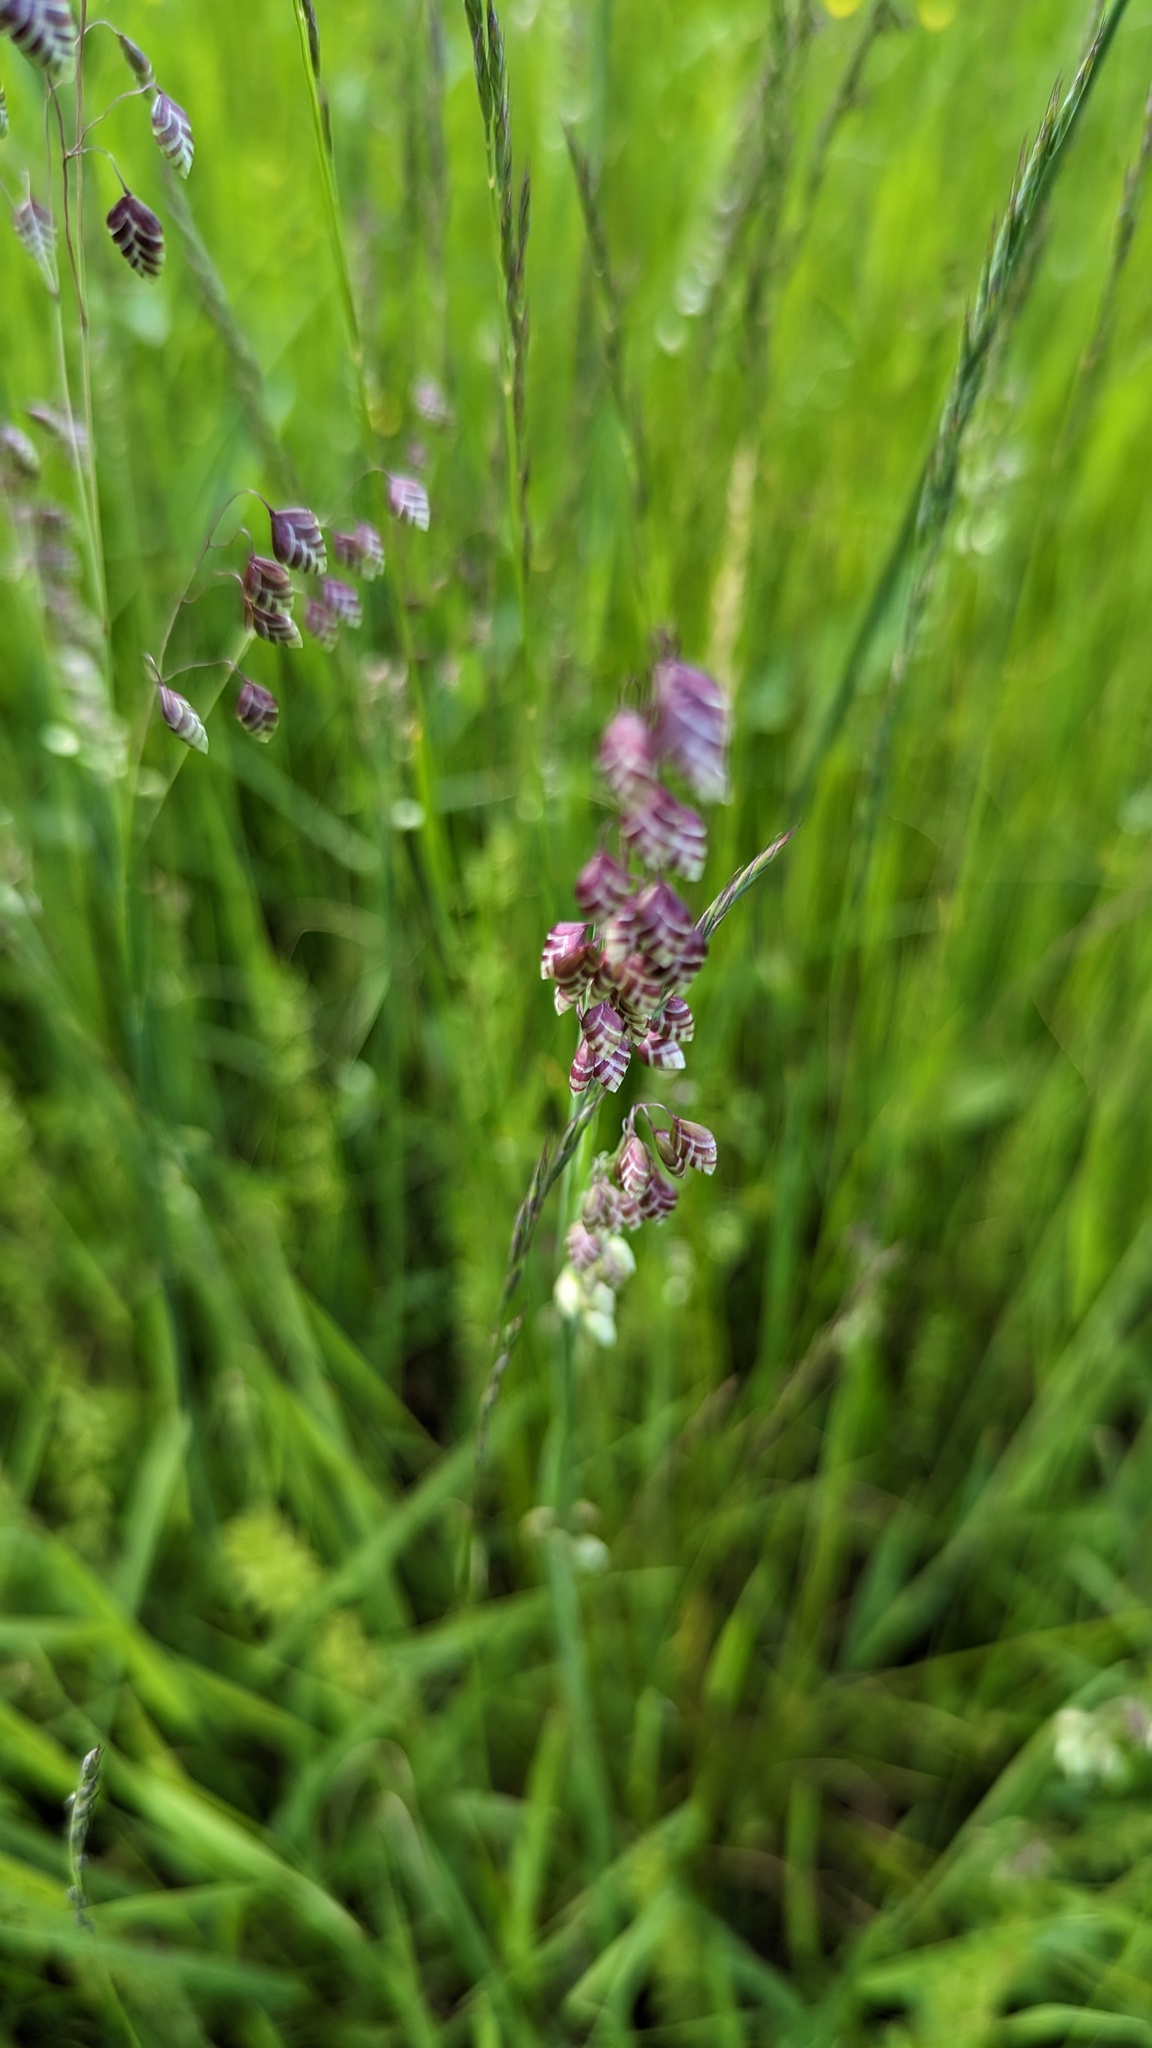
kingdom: Plantae
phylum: Tracheophyta
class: Liliopsida
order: Poales
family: Poaceae
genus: Briza
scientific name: Briza media
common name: Quaking grass
